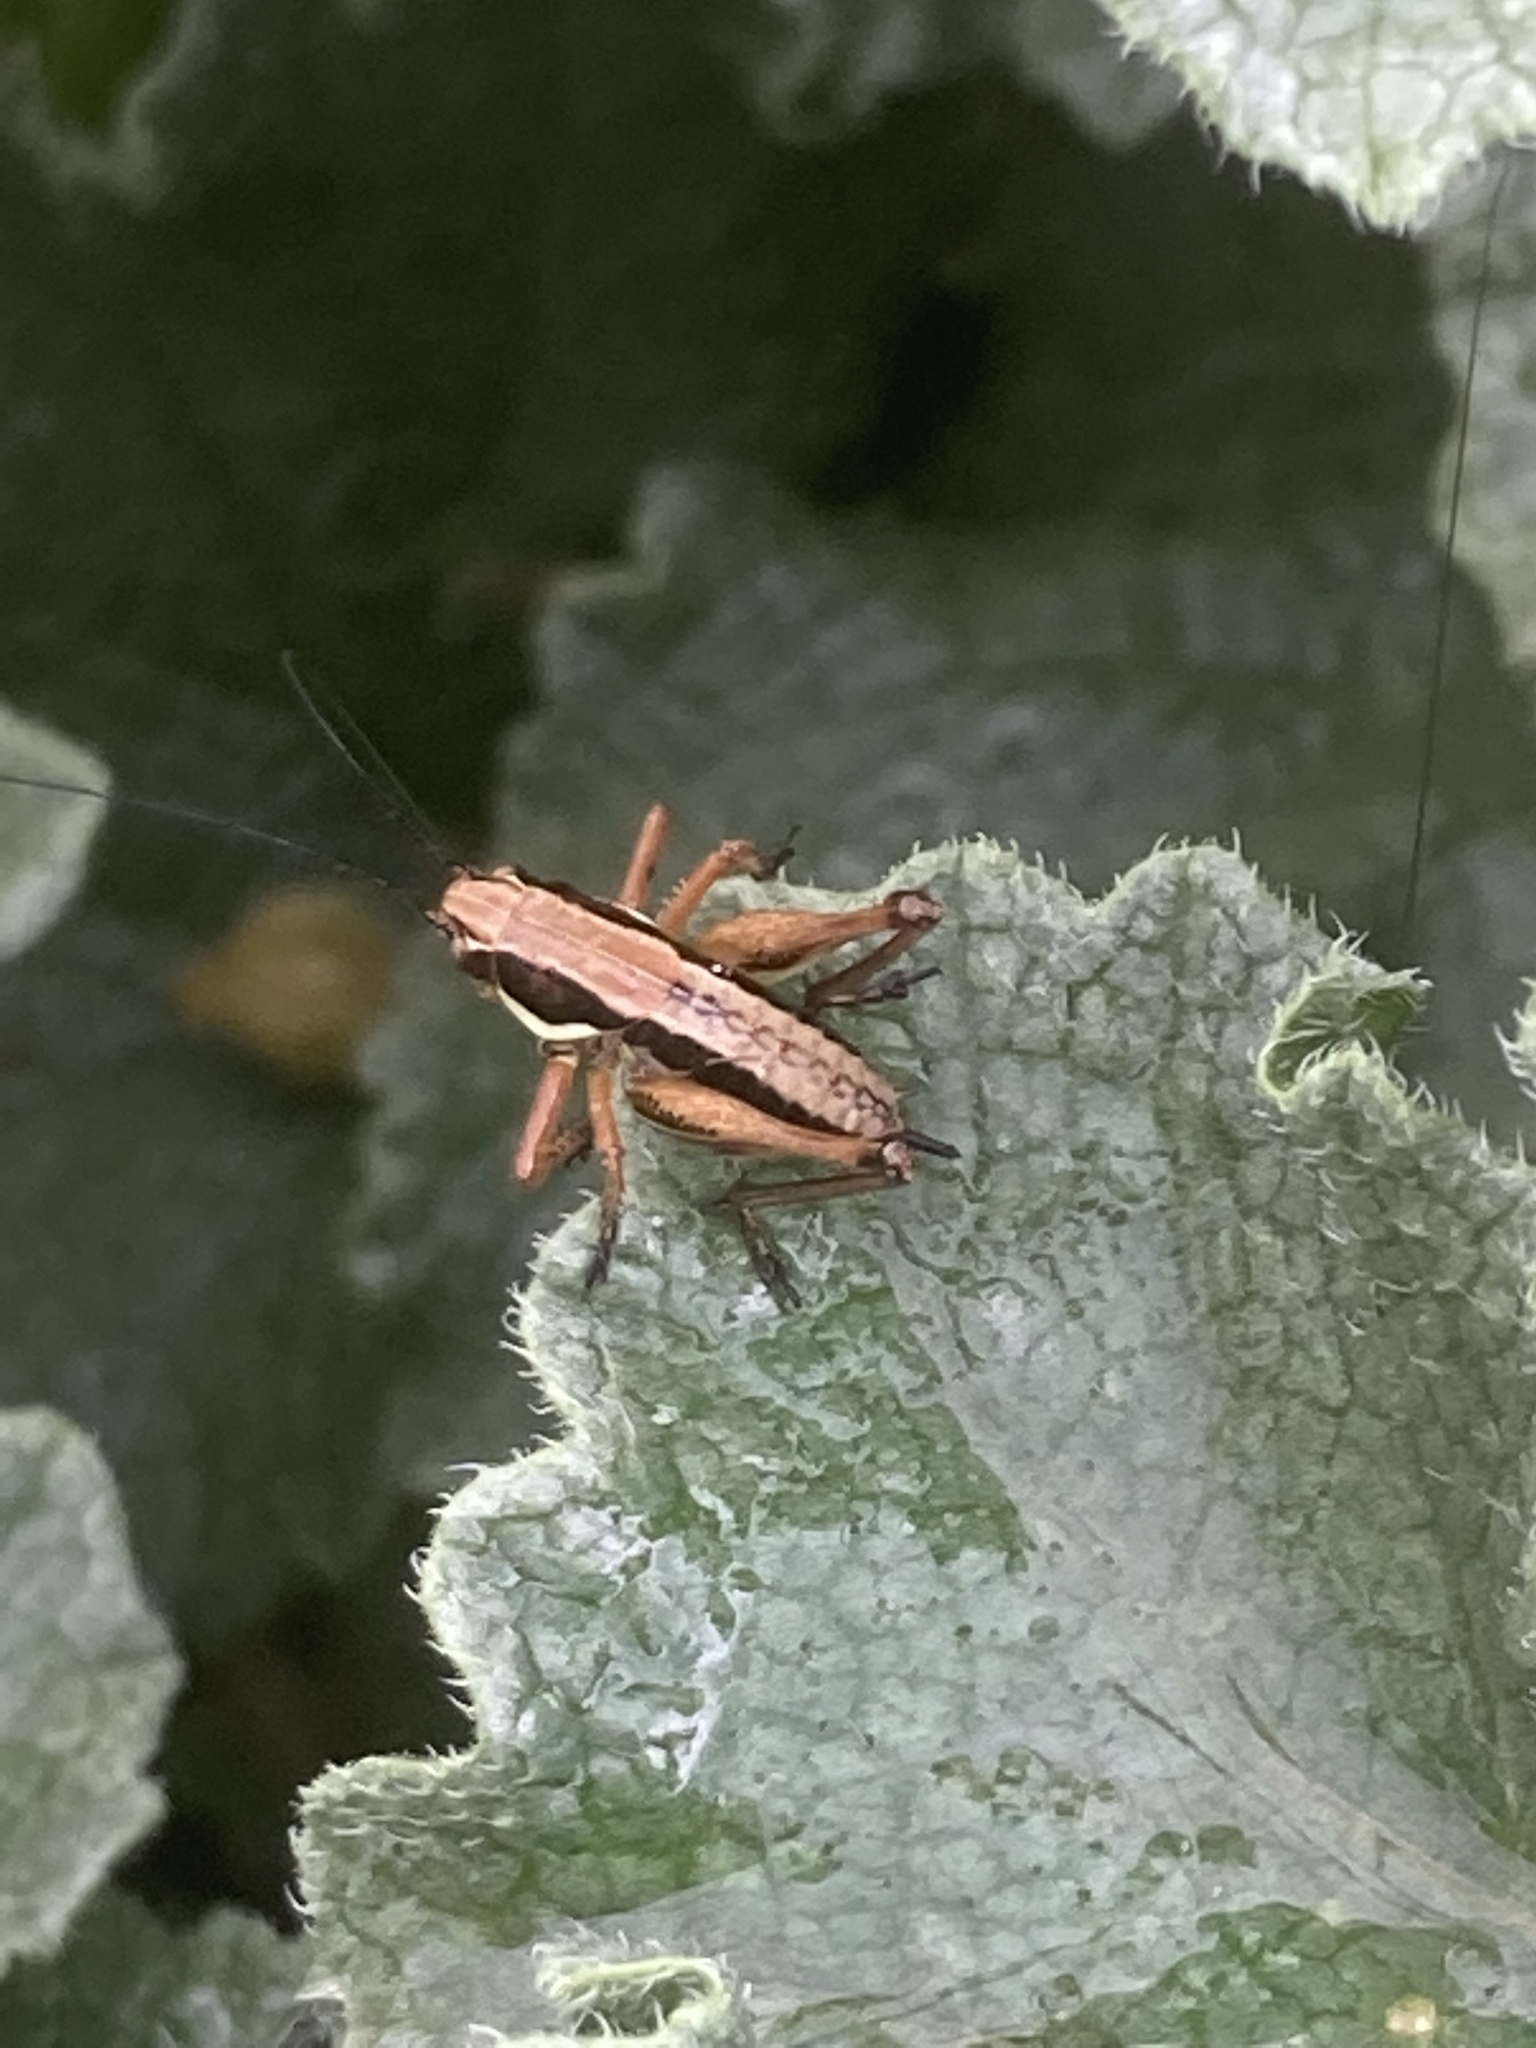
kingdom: Animalia
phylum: Arthropoda
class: Insecta
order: Orthoptera
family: Tettigoniidae
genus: Eupholidoptera
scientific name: Eupholidoptera smyrnensis
